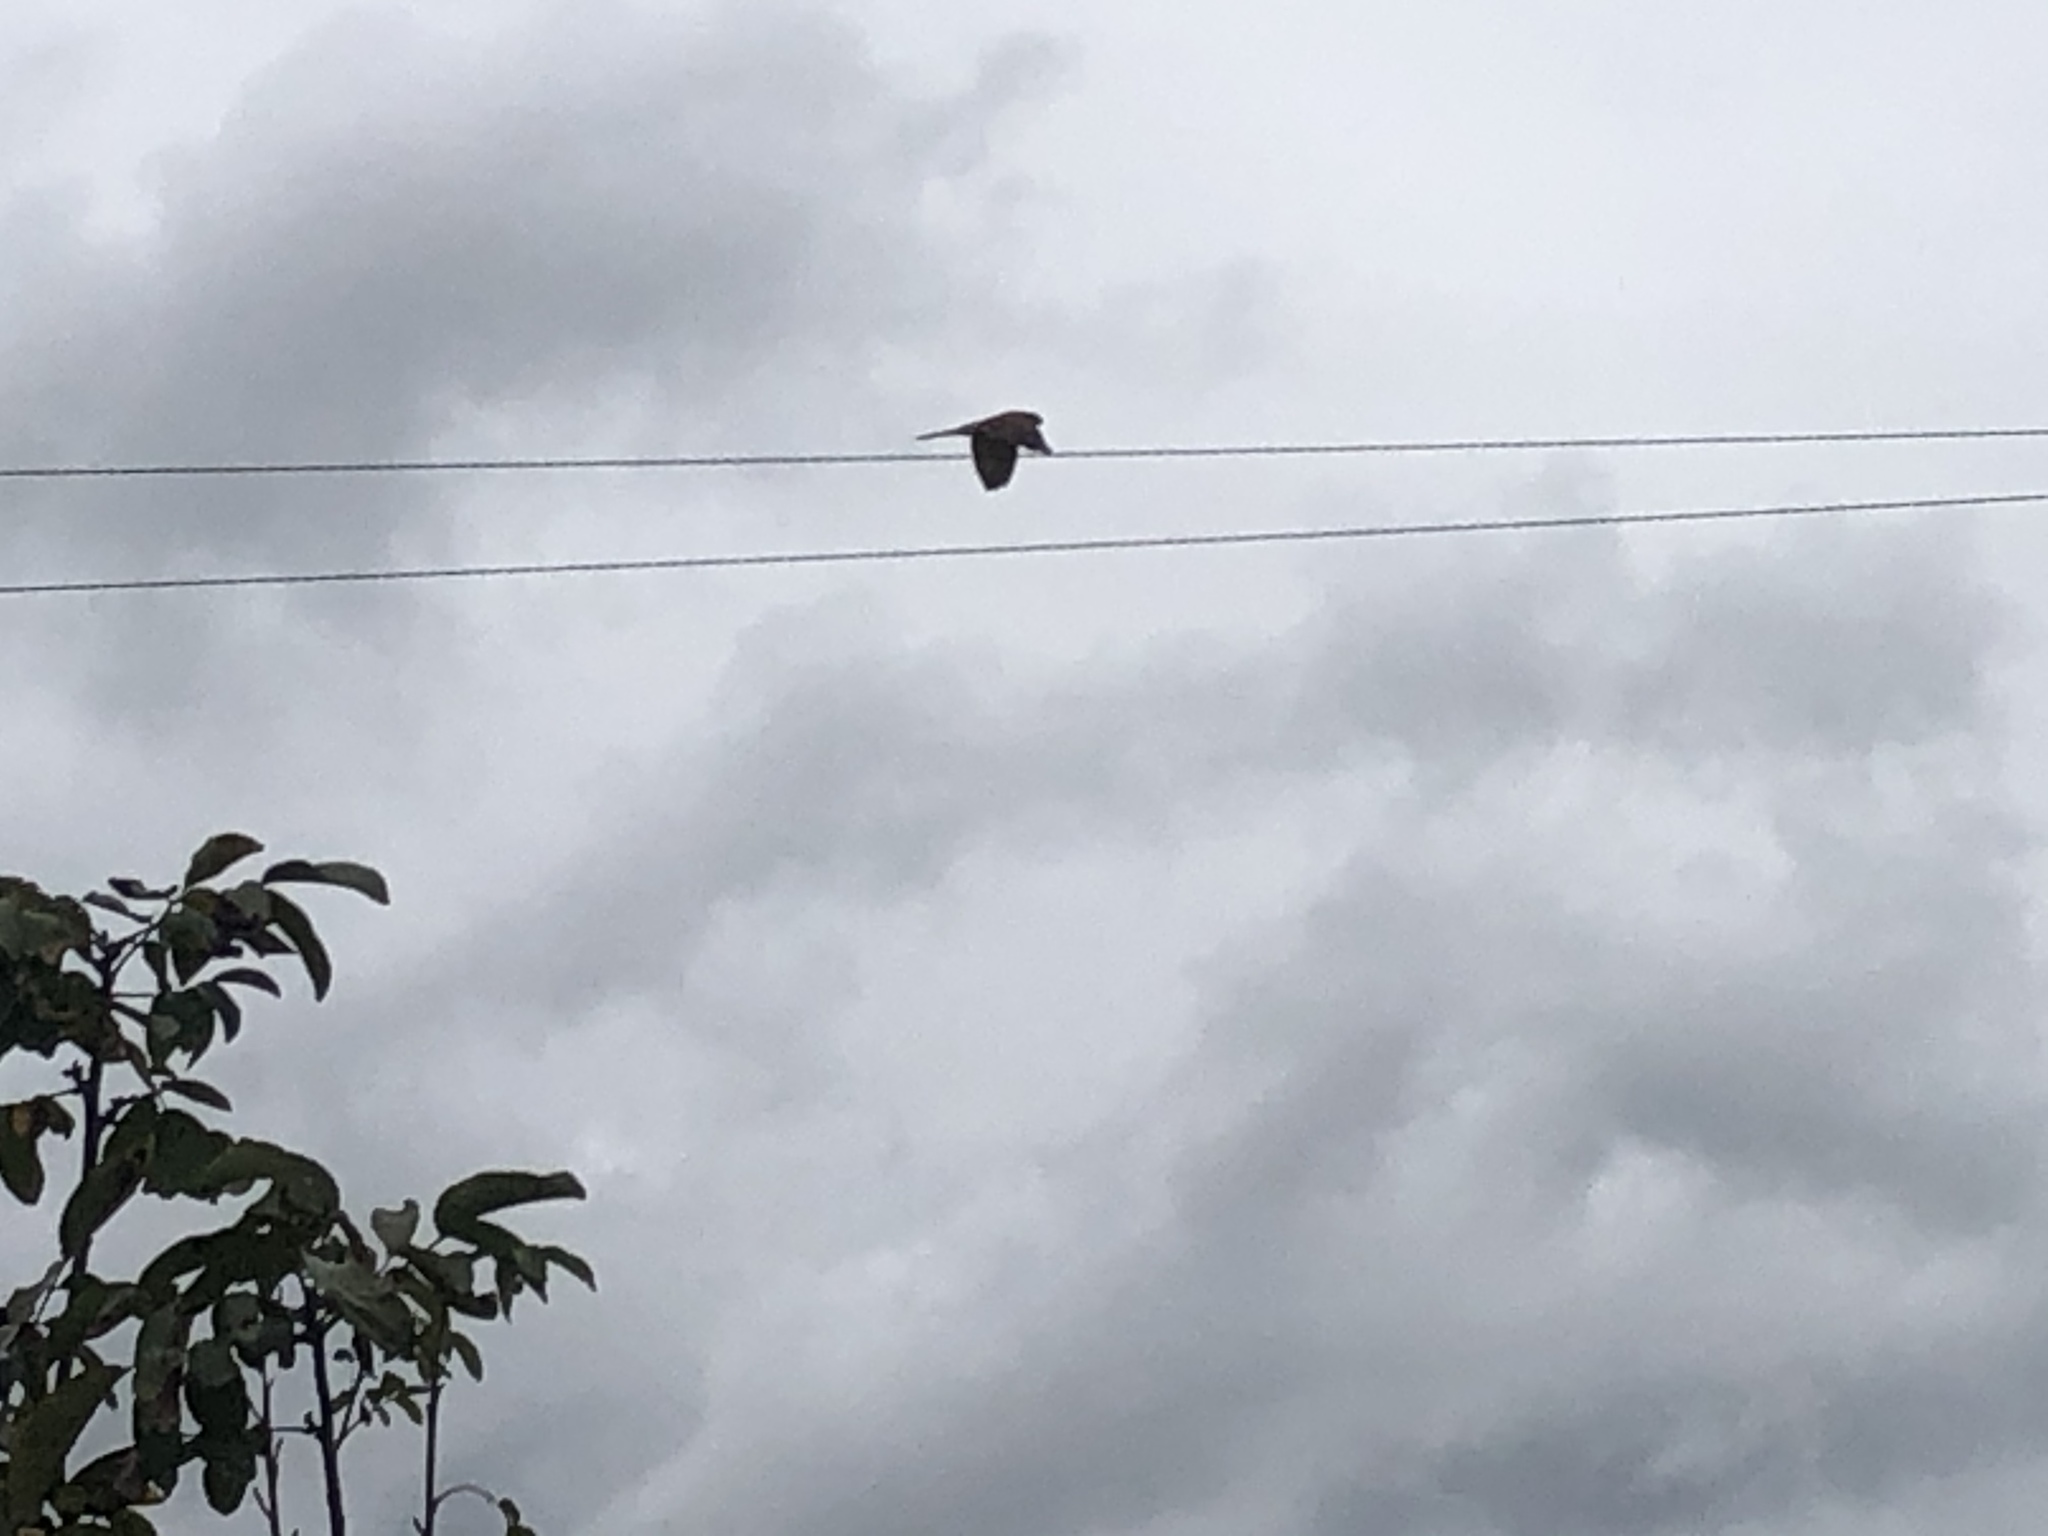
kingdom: Animalia
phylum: Chordata
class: Aves
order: Falconiformes
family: Falconidae
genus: Falco
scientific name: Falco tinnunculus
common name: Common kestrel
